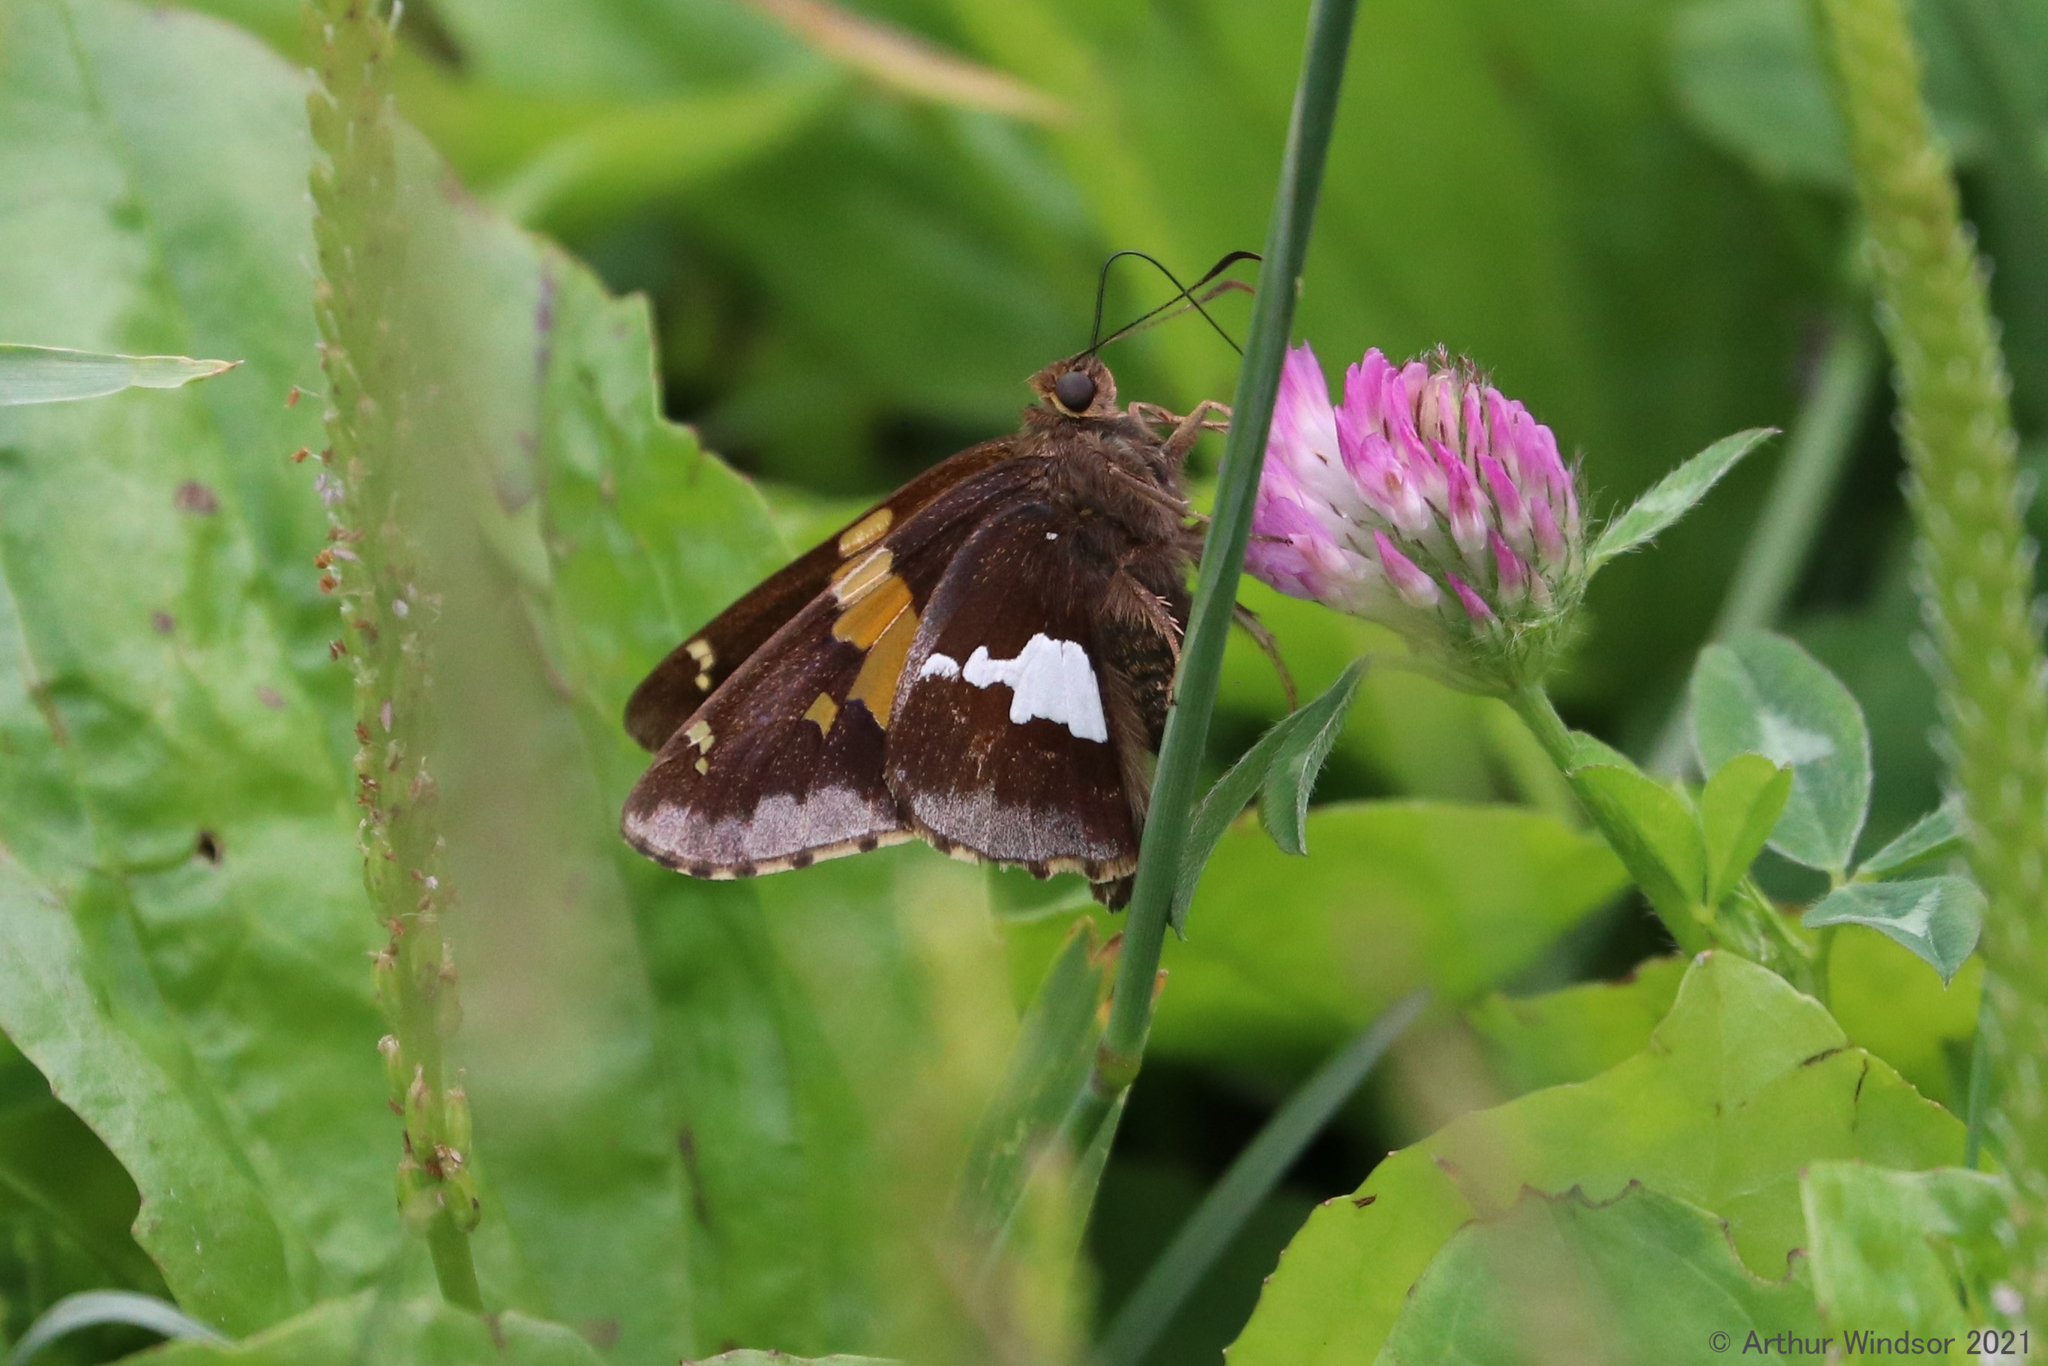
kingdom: Animalia
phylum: Arthropoda
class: Insecta
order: Lepidoptera
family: Hesperiidae
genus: Epargyreus
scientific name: Epargyreus clarus
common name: Silver-spotted skipper
